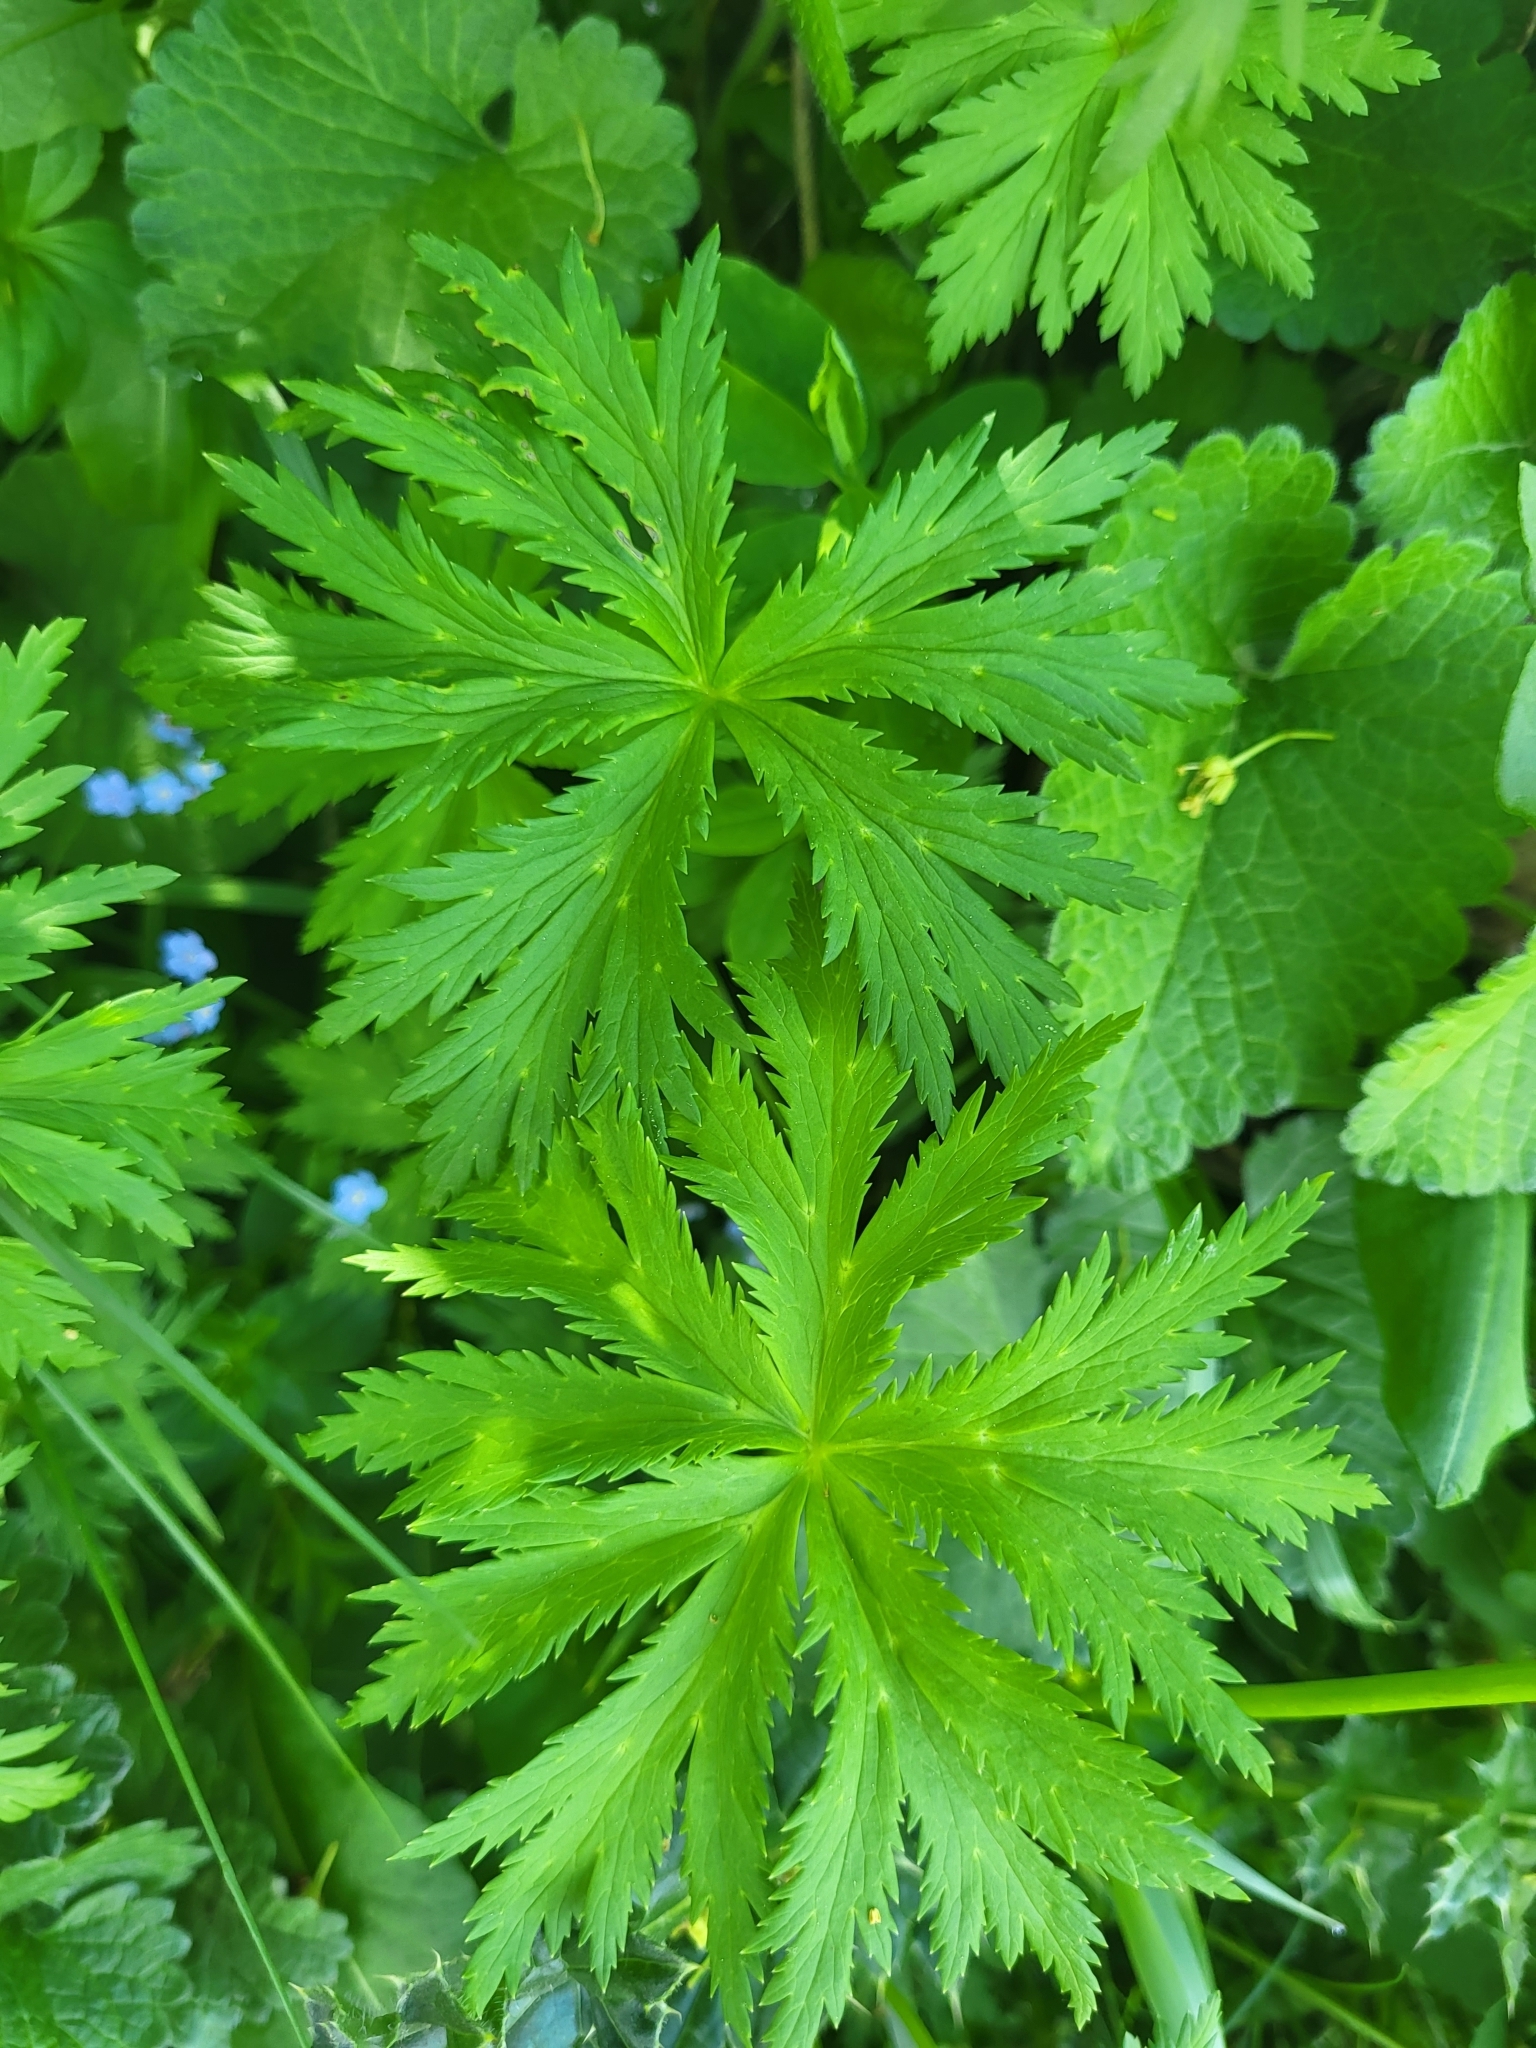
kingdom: Plantae
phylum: Tracheophyta
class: Magnoliopsida
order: Ranunculales
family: Ranunculaceae
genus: Anemonastrum
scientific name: Anemonastrum narcissiflorum
